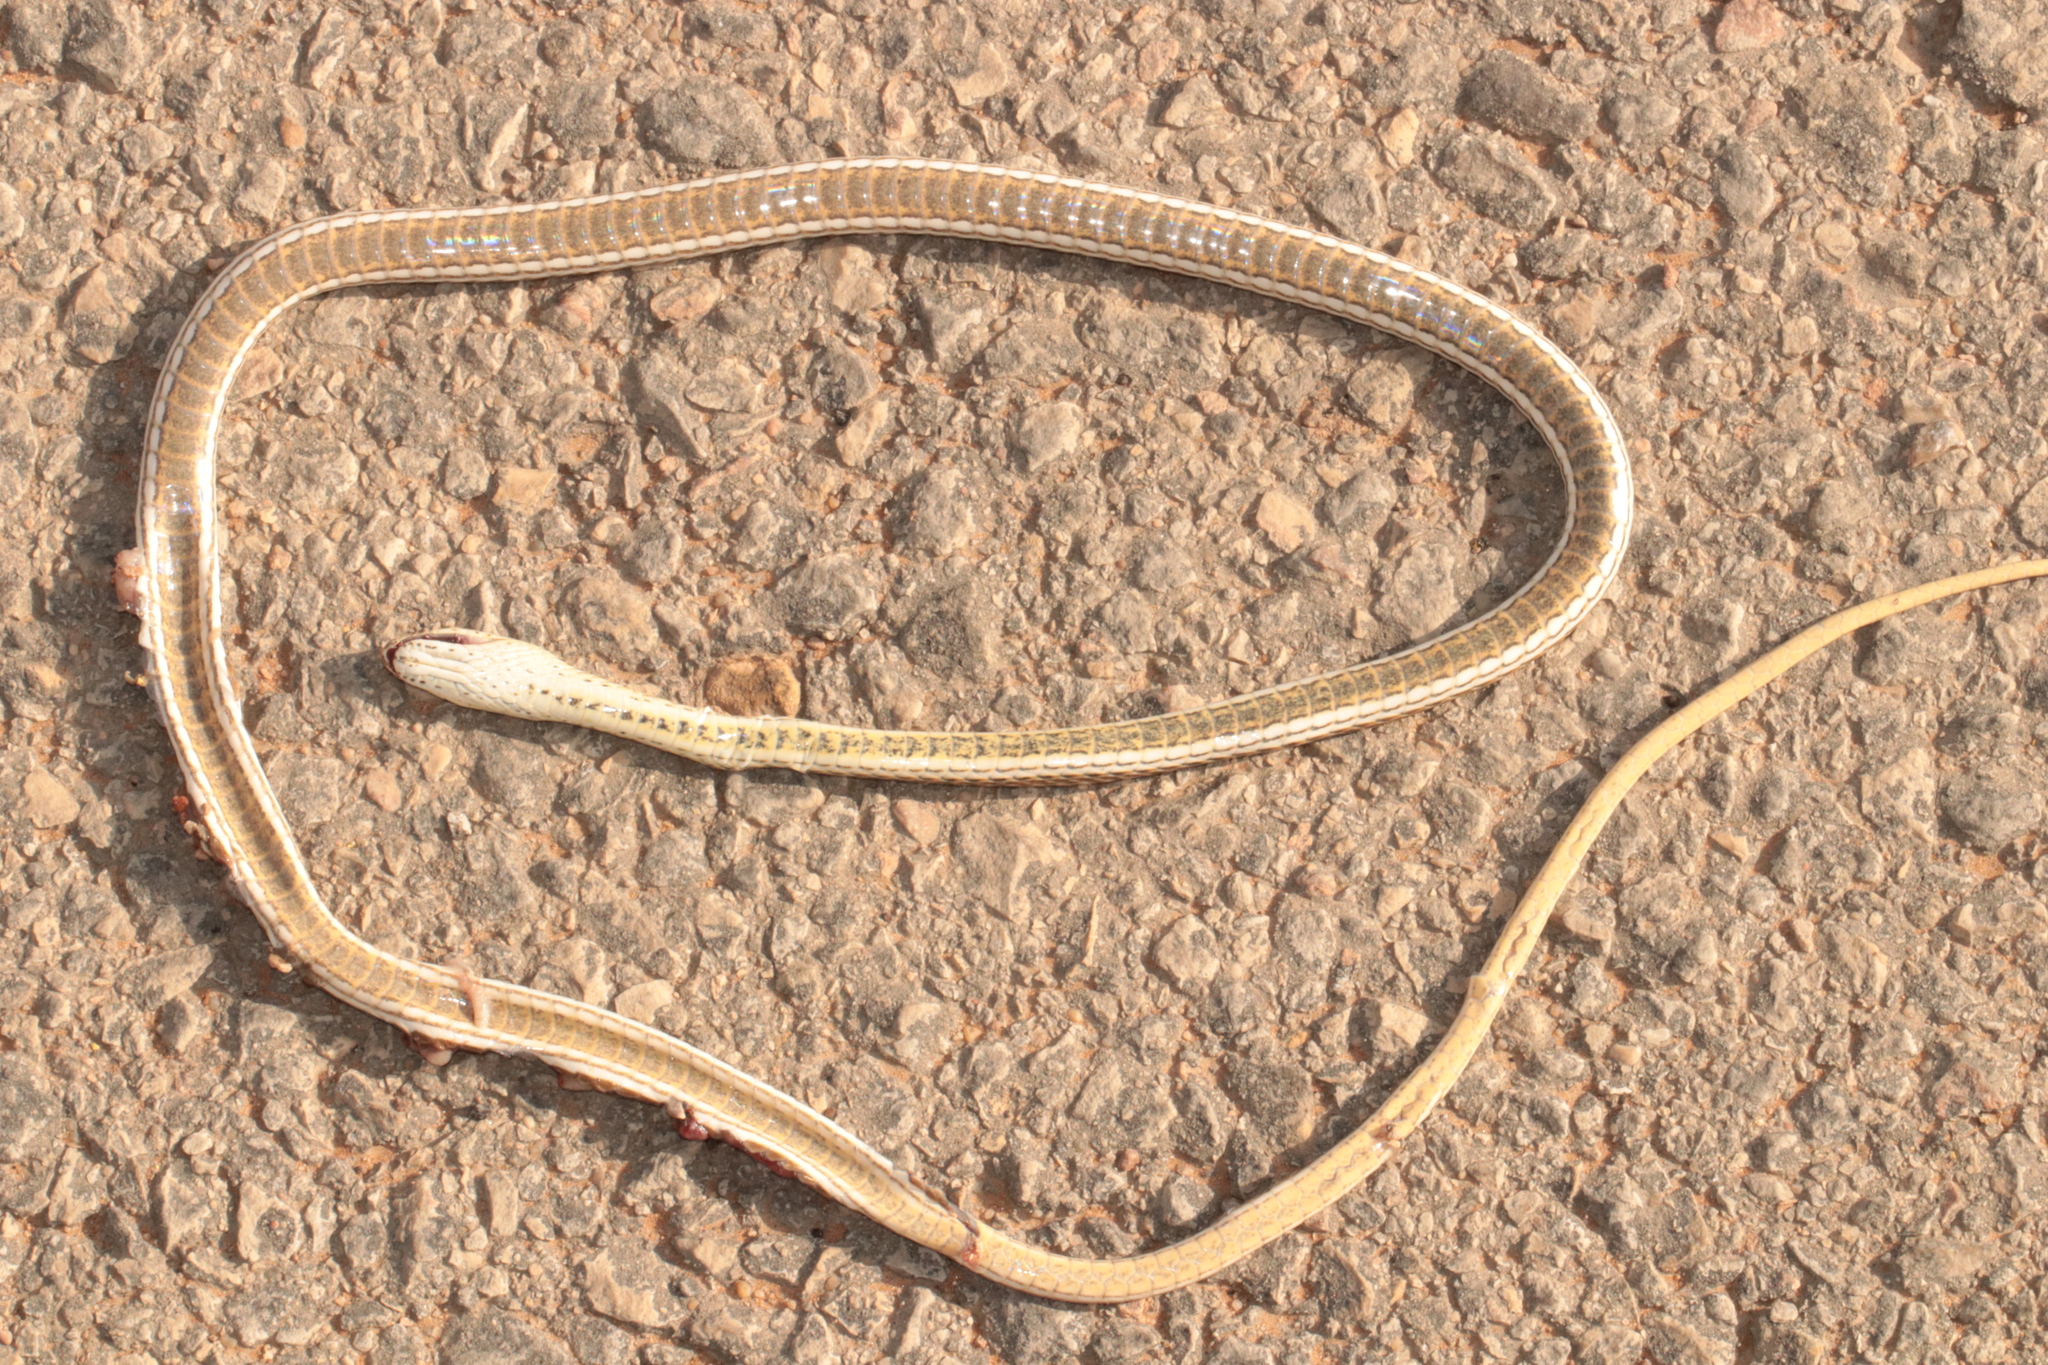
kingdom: Animalia
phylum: Chordata
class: Squamata
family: Psammophiidae
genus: Psammophis
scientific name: Psammophis schokari
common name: Schokari sand racer
